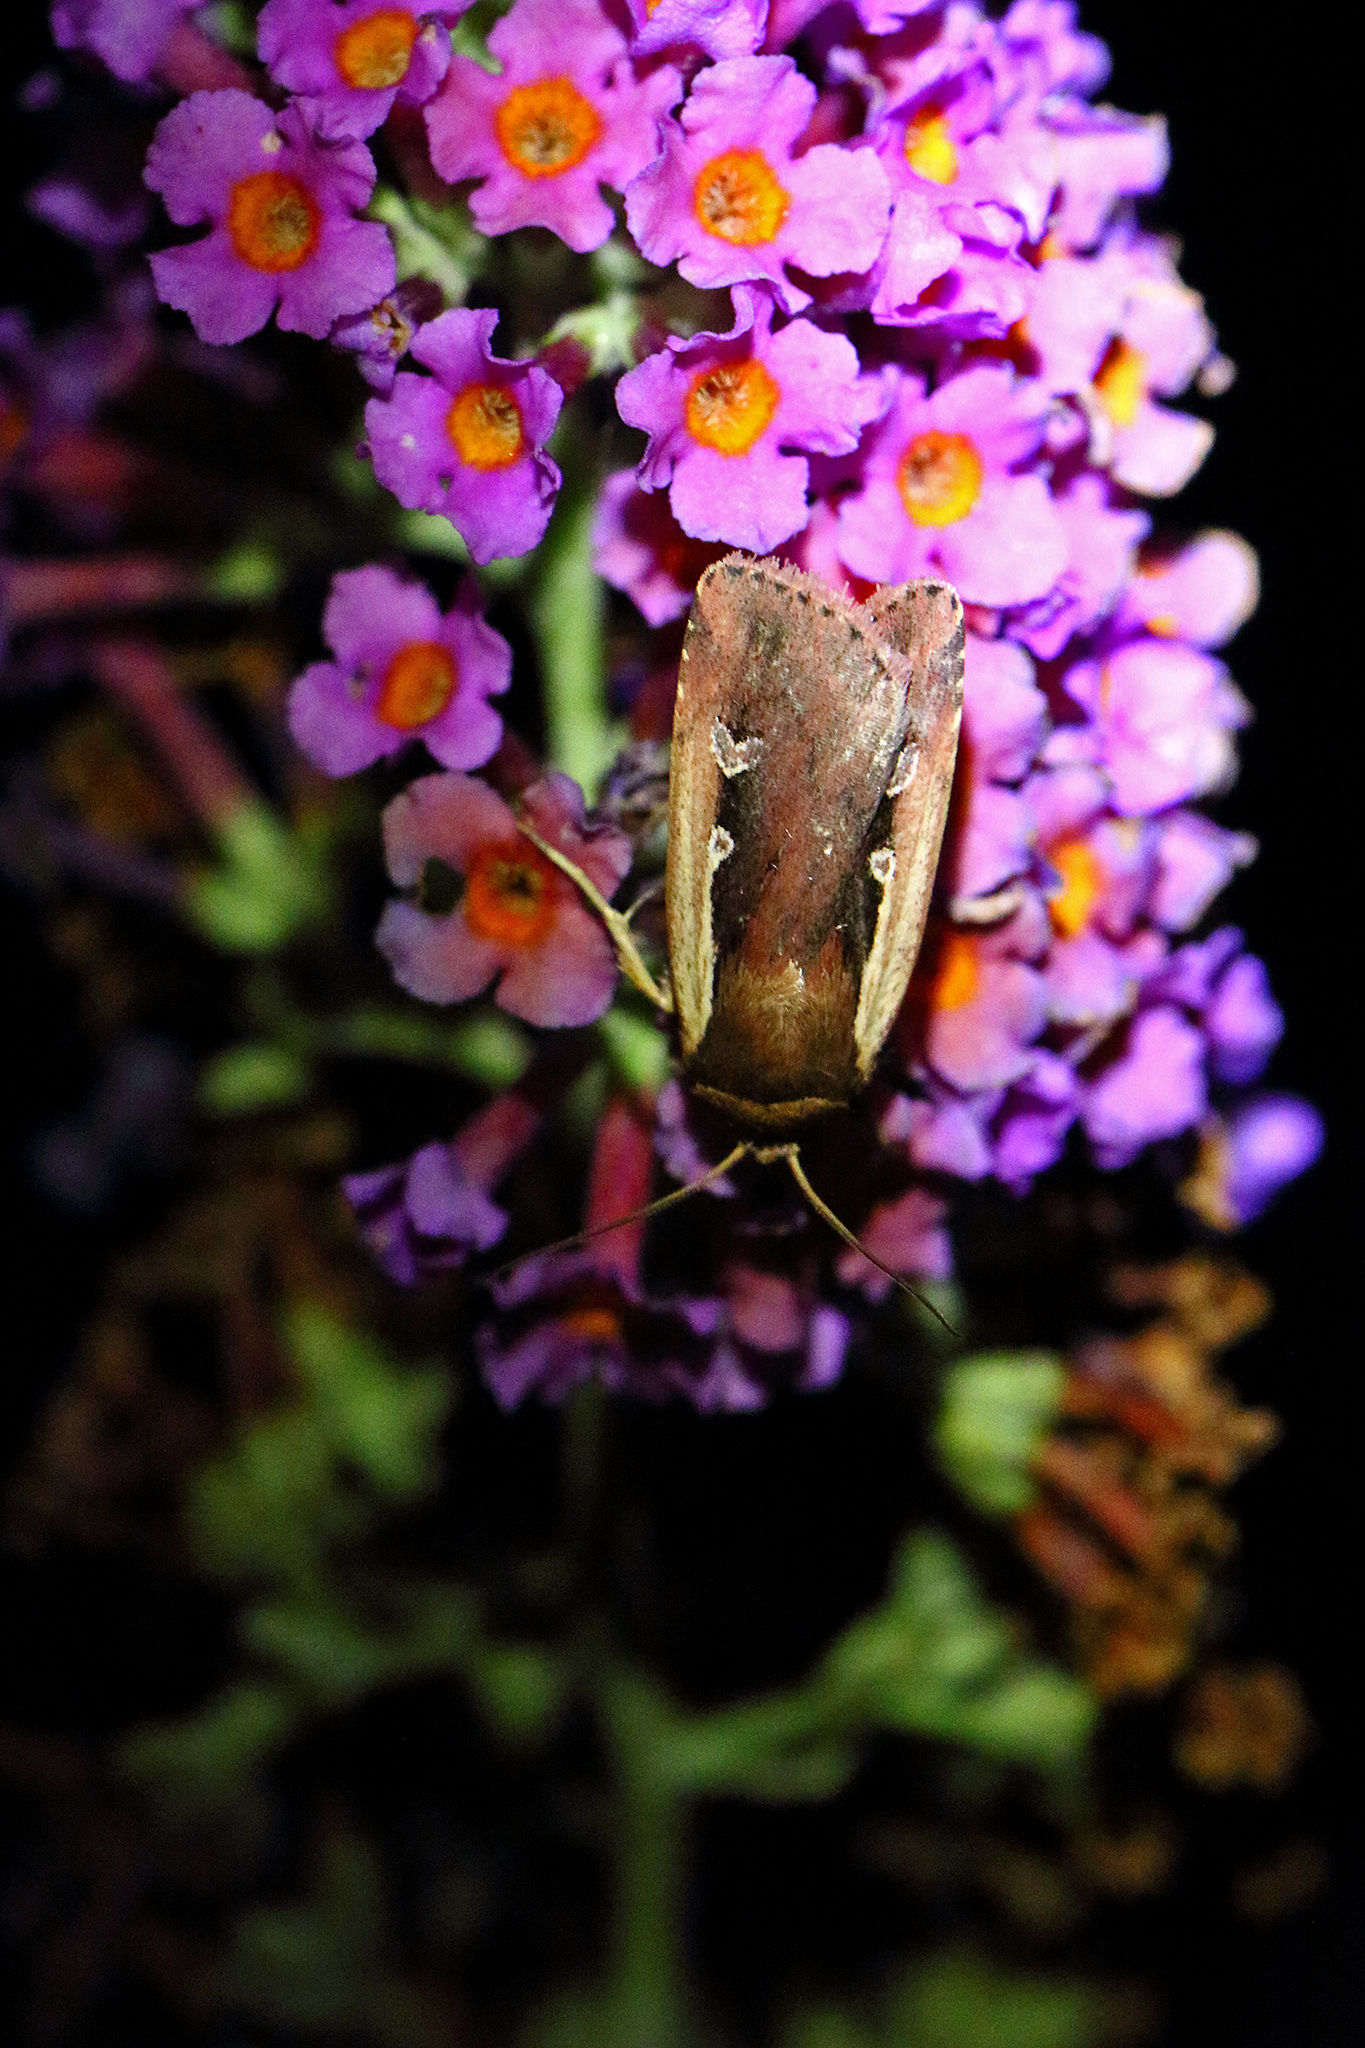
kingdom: Animalia
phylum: Arthropoda
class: Insecta
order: Lepidoptera
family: Noctuidae
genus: Ochropleura
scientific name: Ochropleura plecta
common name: Flame shoulder
